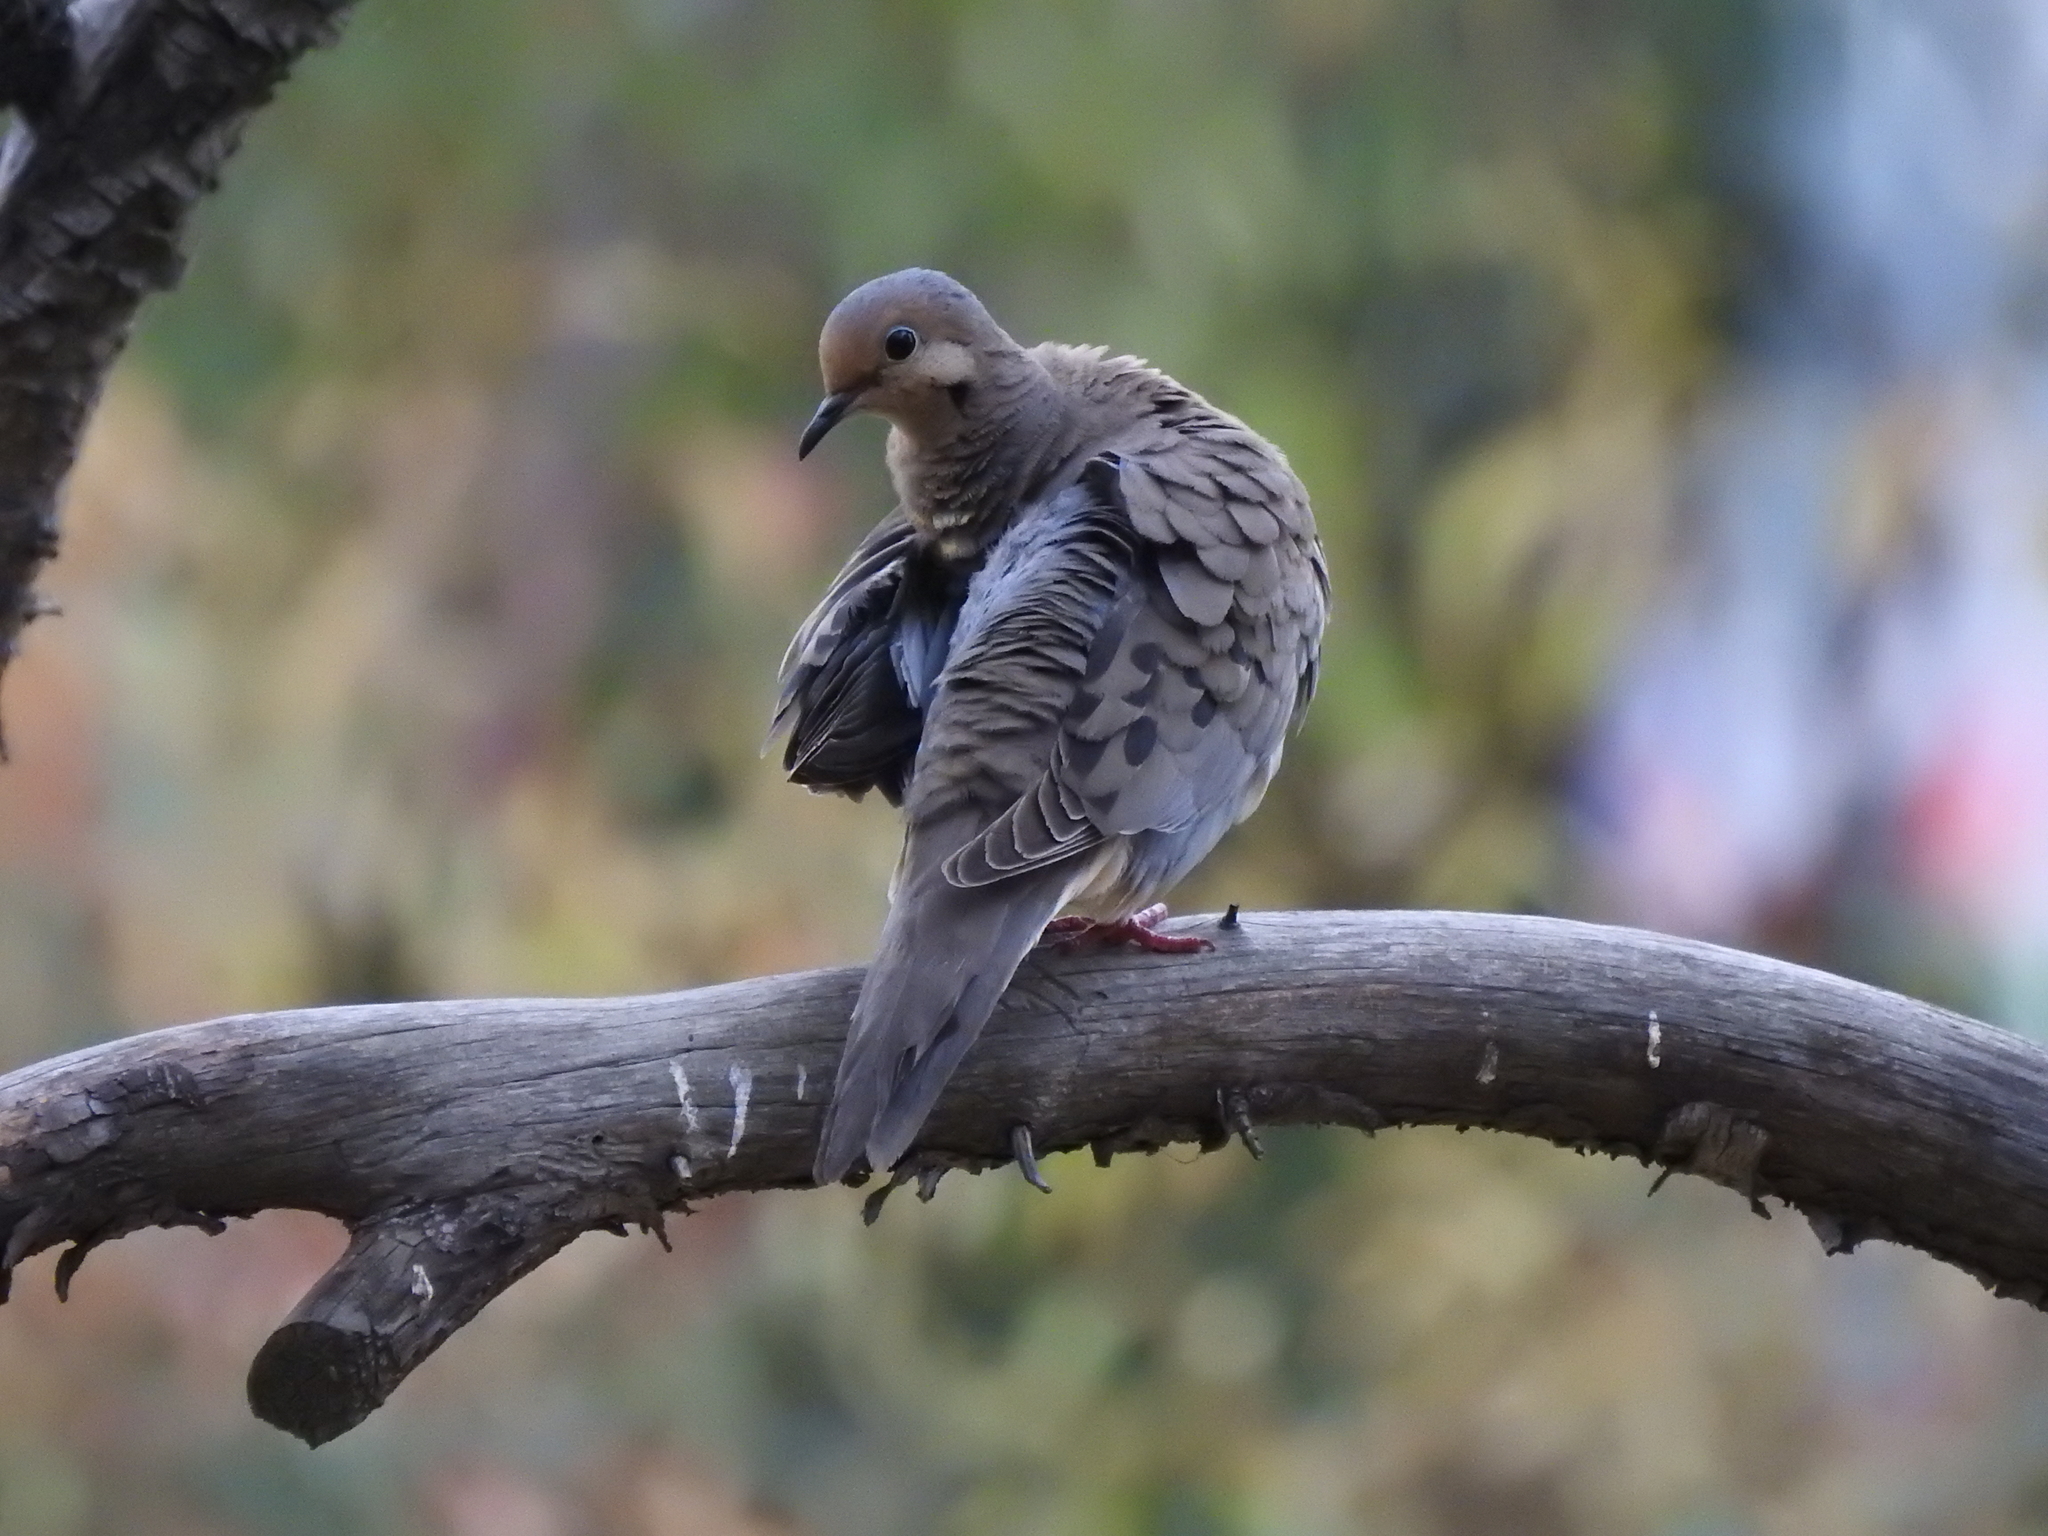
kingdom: Animalia
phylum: Chordata
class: Aves
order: Columbiformes
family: Columbidae
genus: Zenaida
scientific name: Zenaida macroura
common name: Mourning dove
